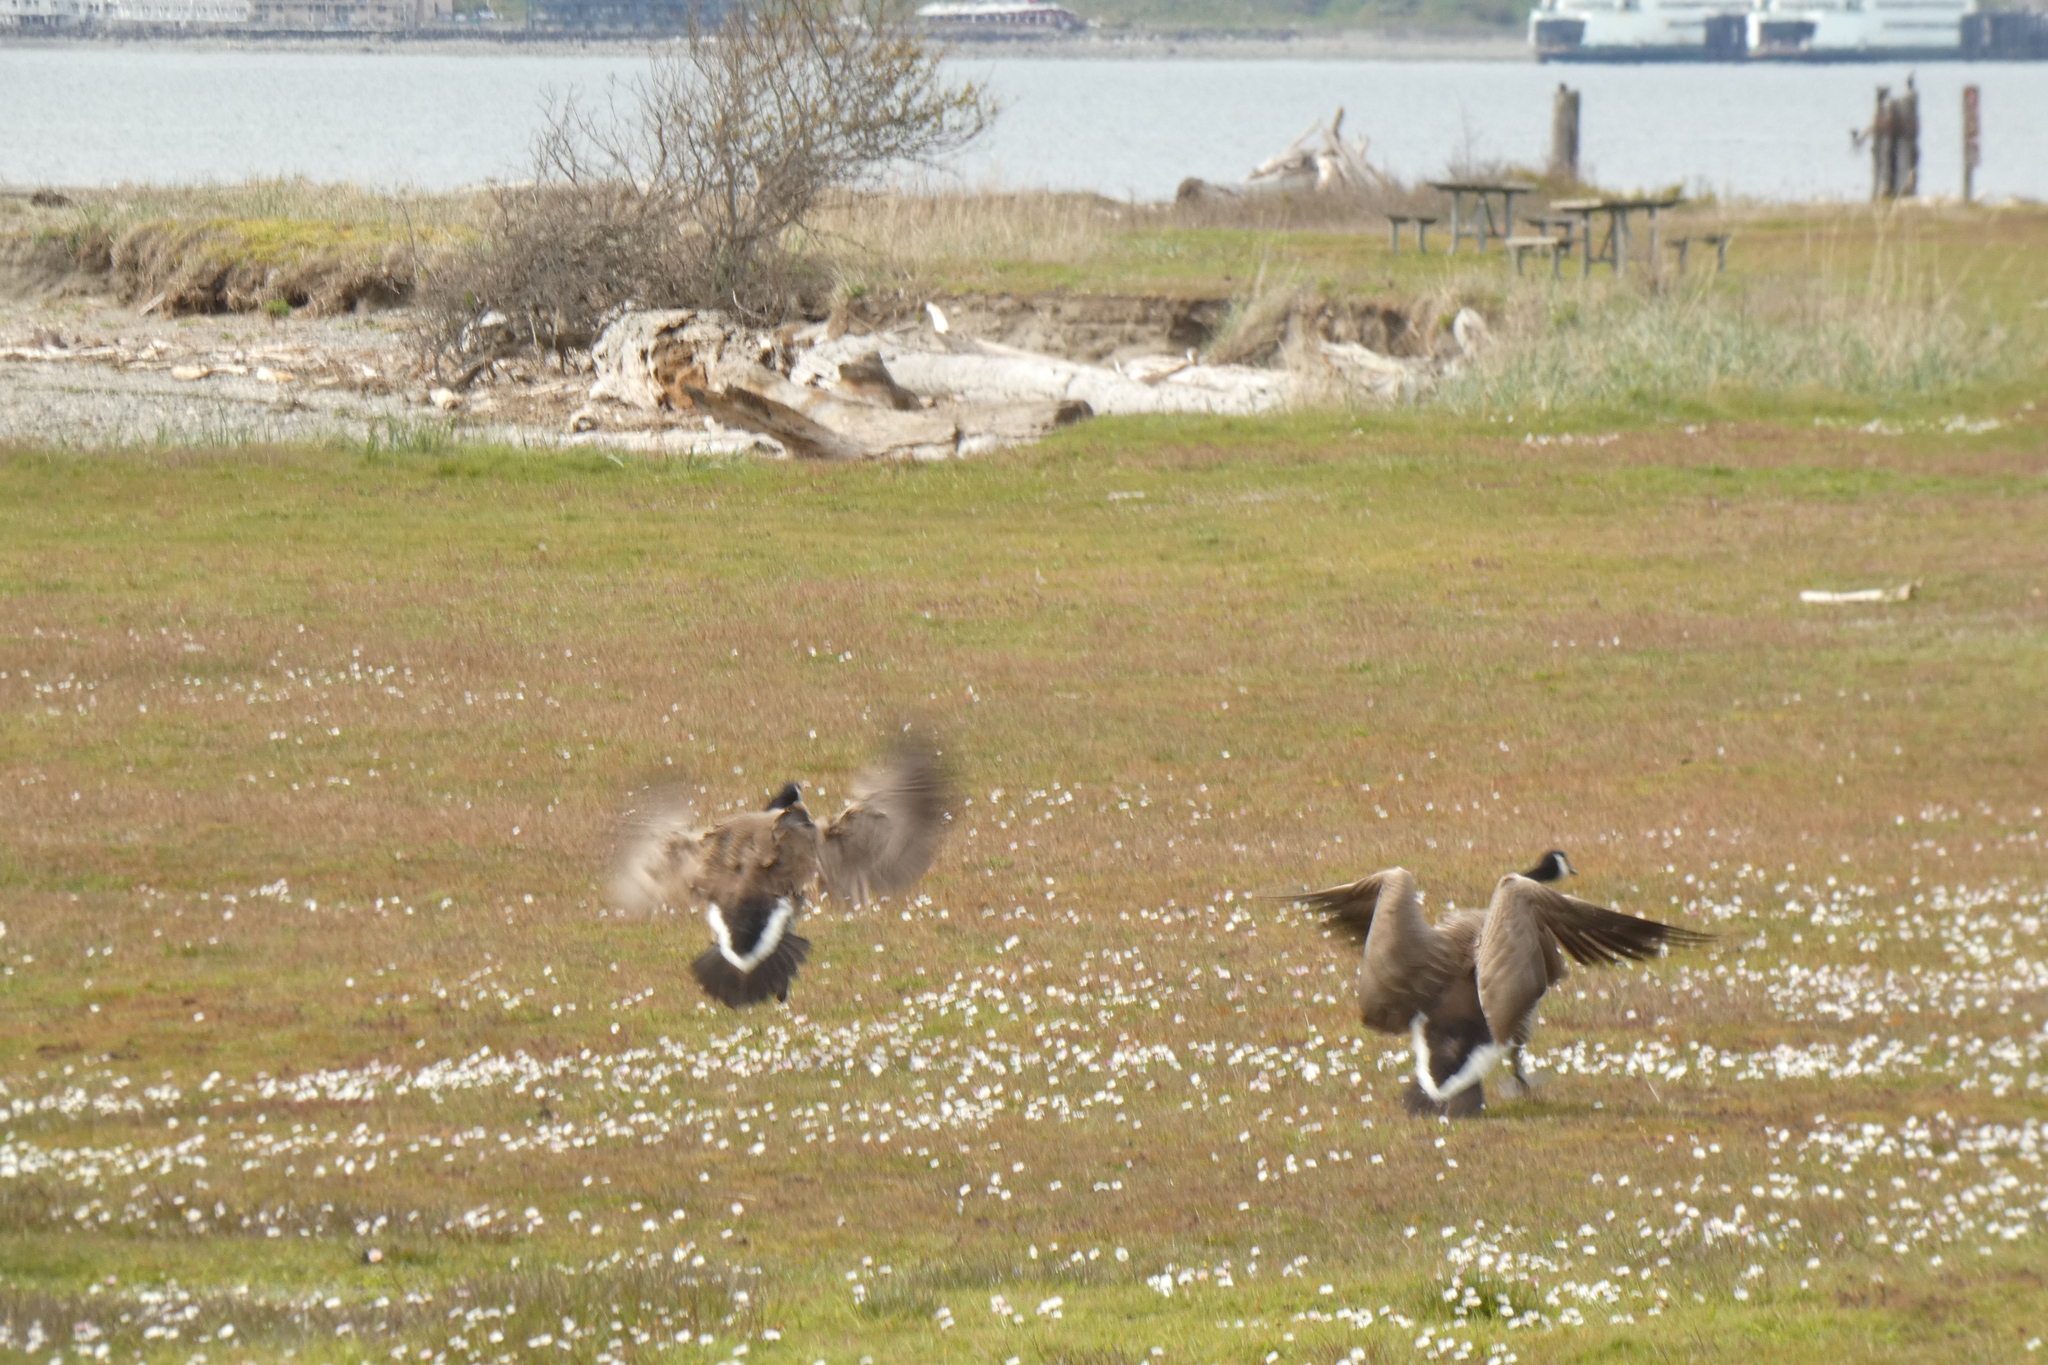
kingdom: Animalia
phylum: Chordata
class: Aves
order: Anseriformes
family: Anatidae
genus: Branta
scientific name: Branta canadensis
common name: Canada goose
